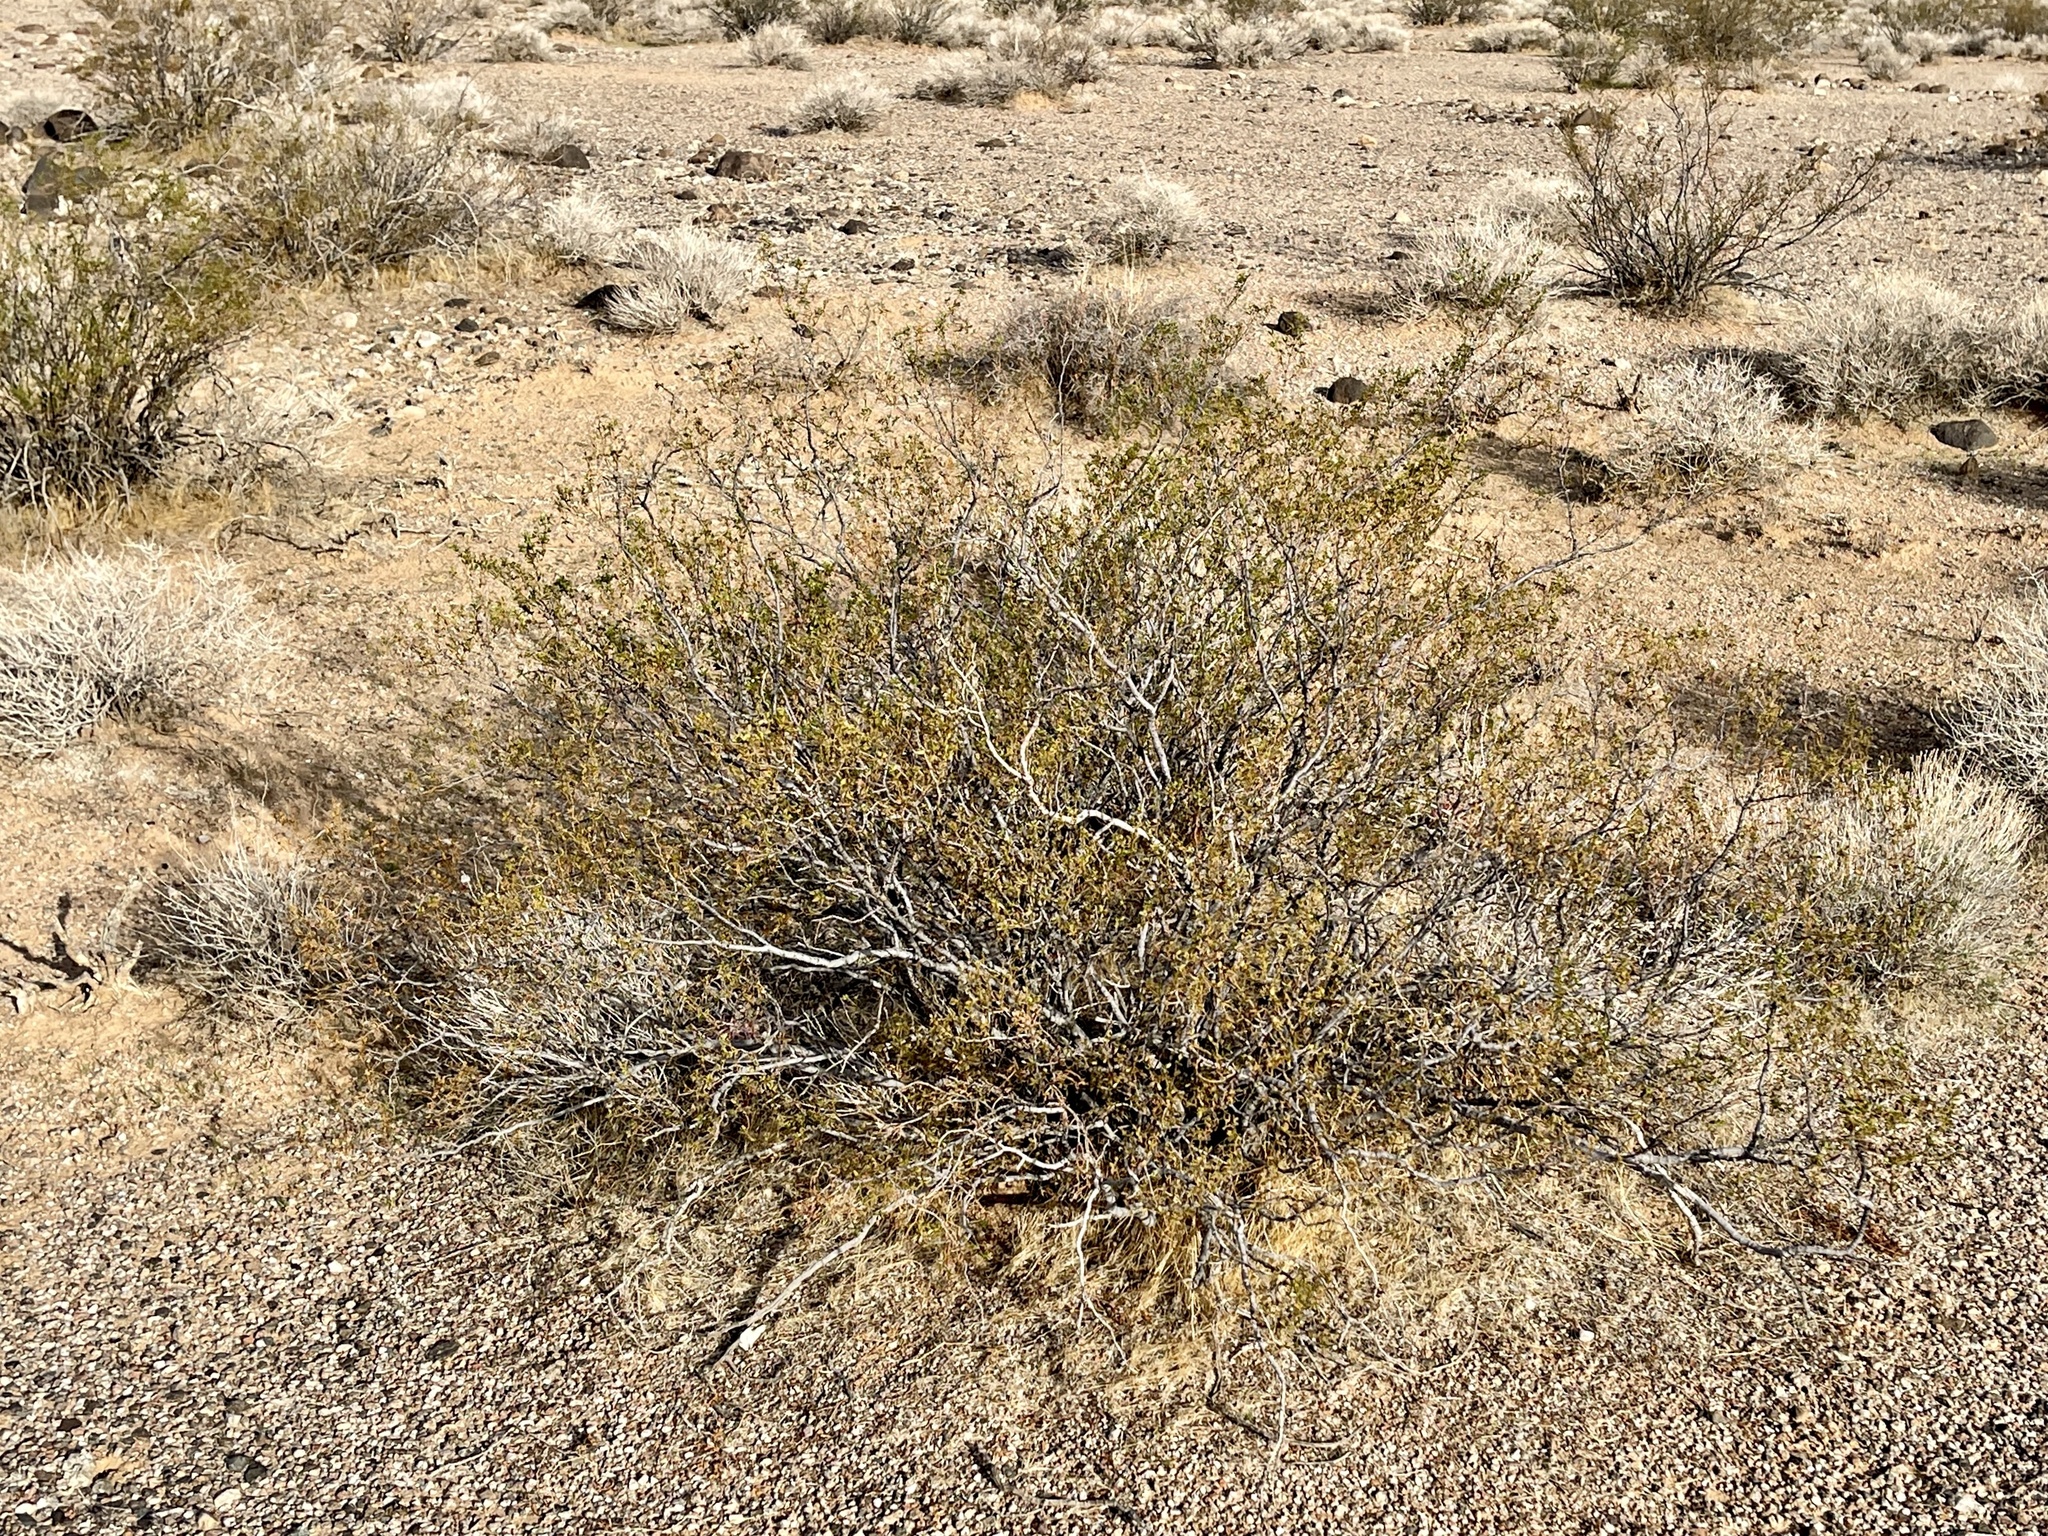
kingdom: Plantae
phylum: Tracheophyta
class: Magnoliopsida
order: Zygophyllales
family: Zygophyllaceae
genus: Larrea
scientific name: Larrea tridentata
